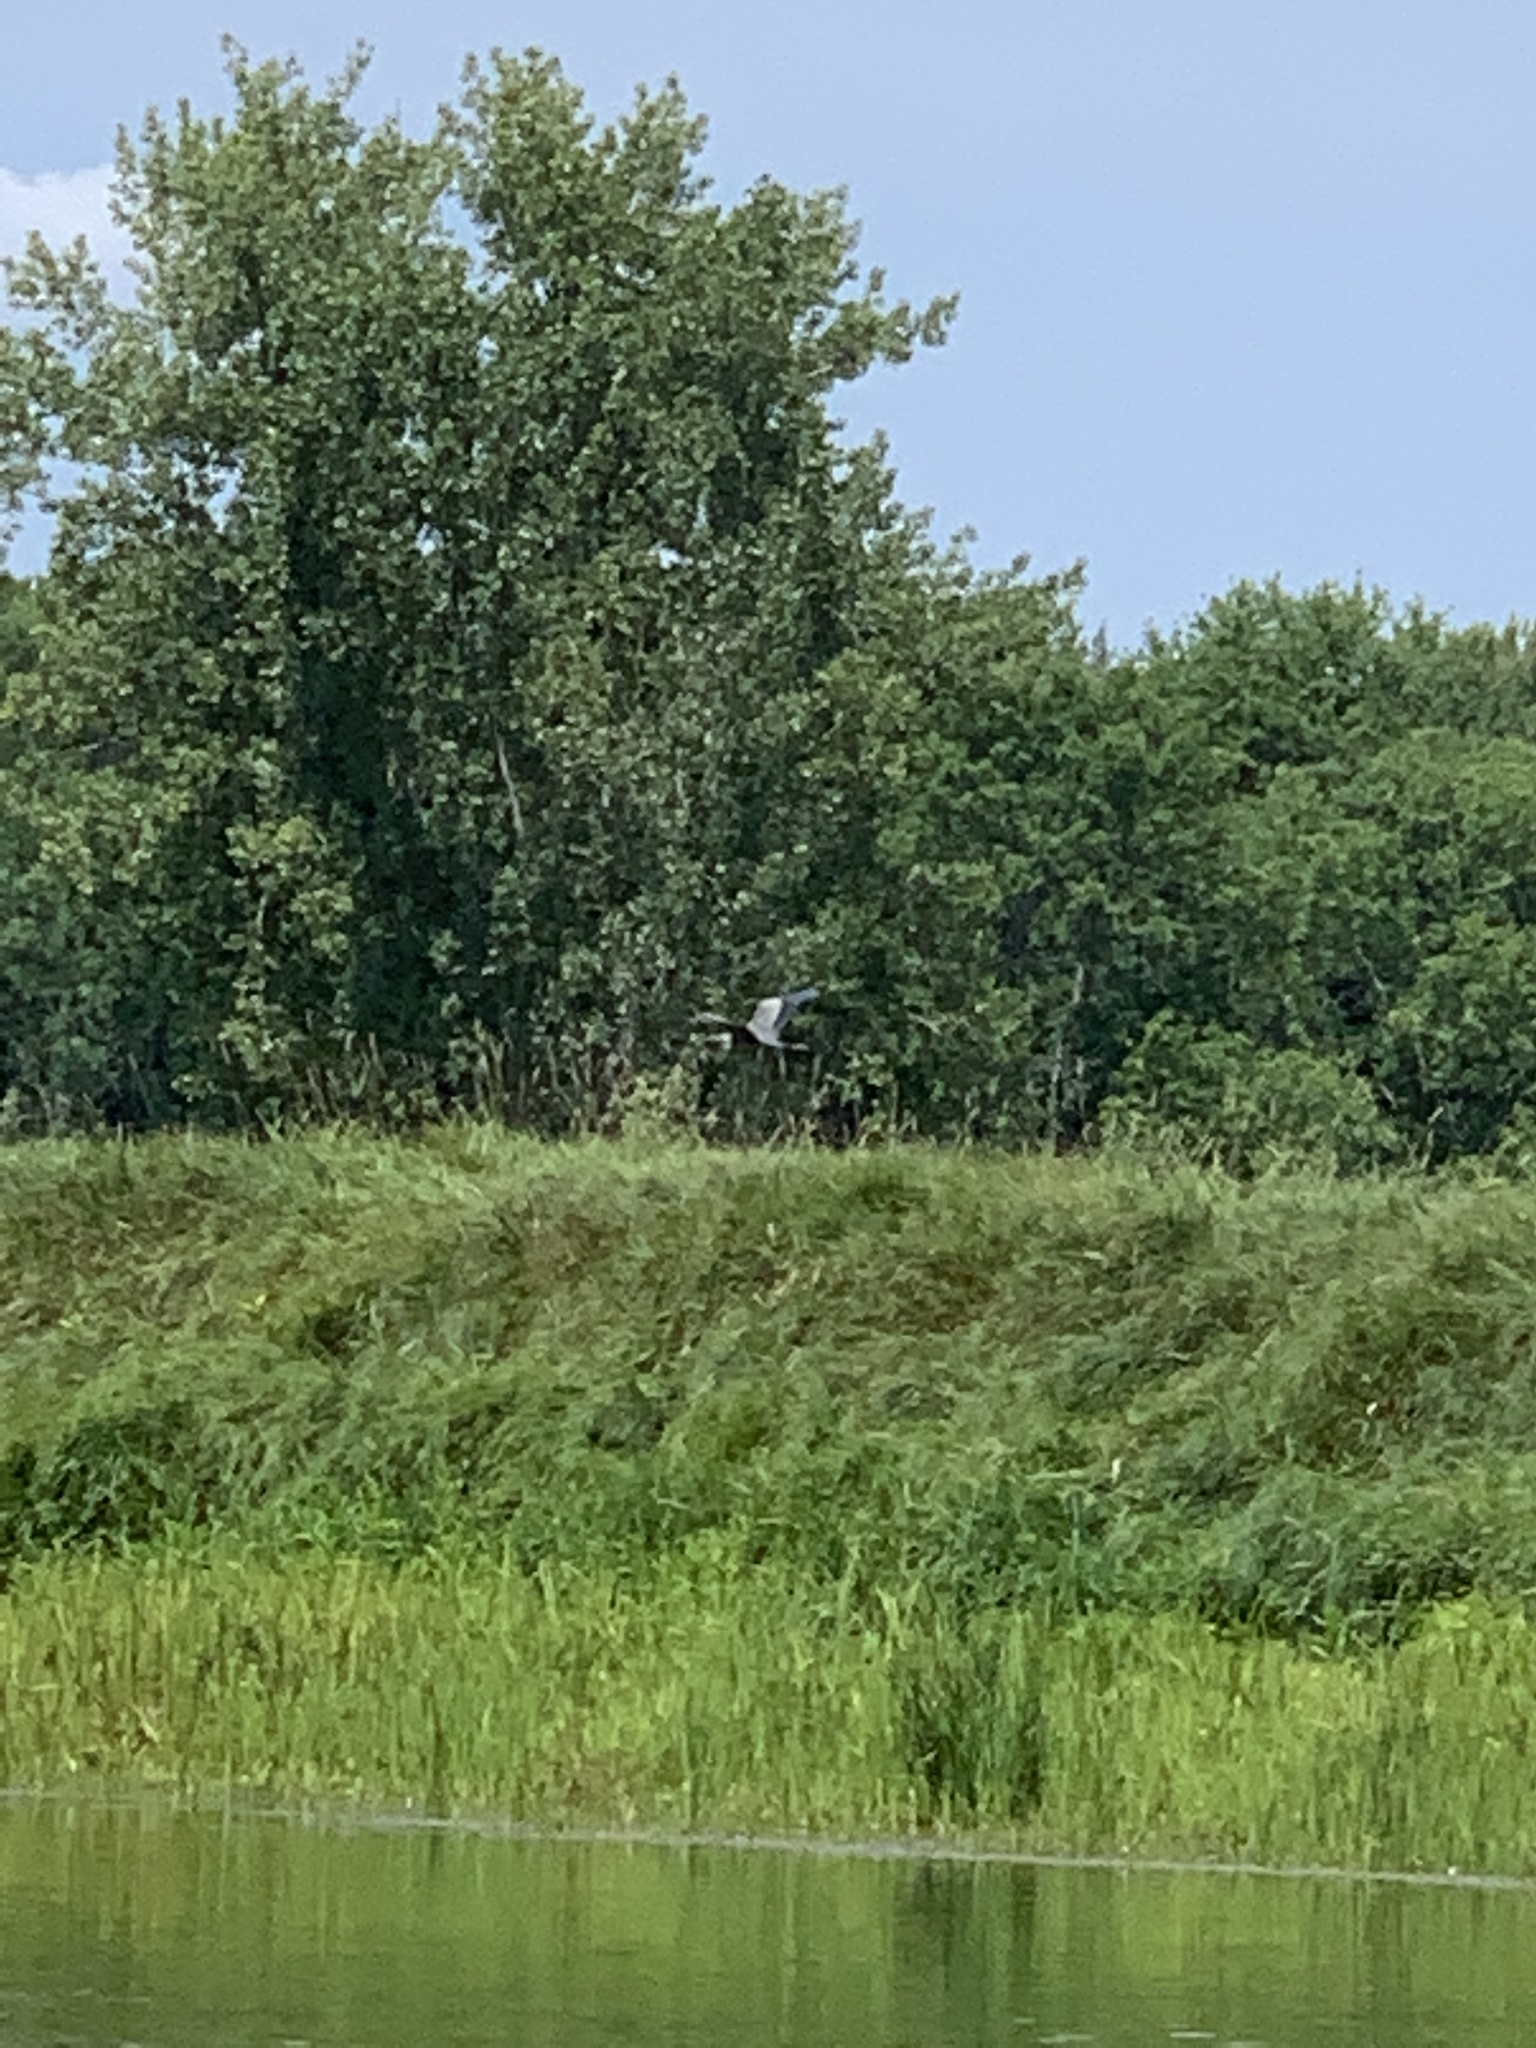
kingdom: Animalia
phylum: Chordata
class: Aves
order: Pelecaniformes
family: Ardeidae
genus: Ardea
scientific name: Ardea herodias
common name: Great blue heron
